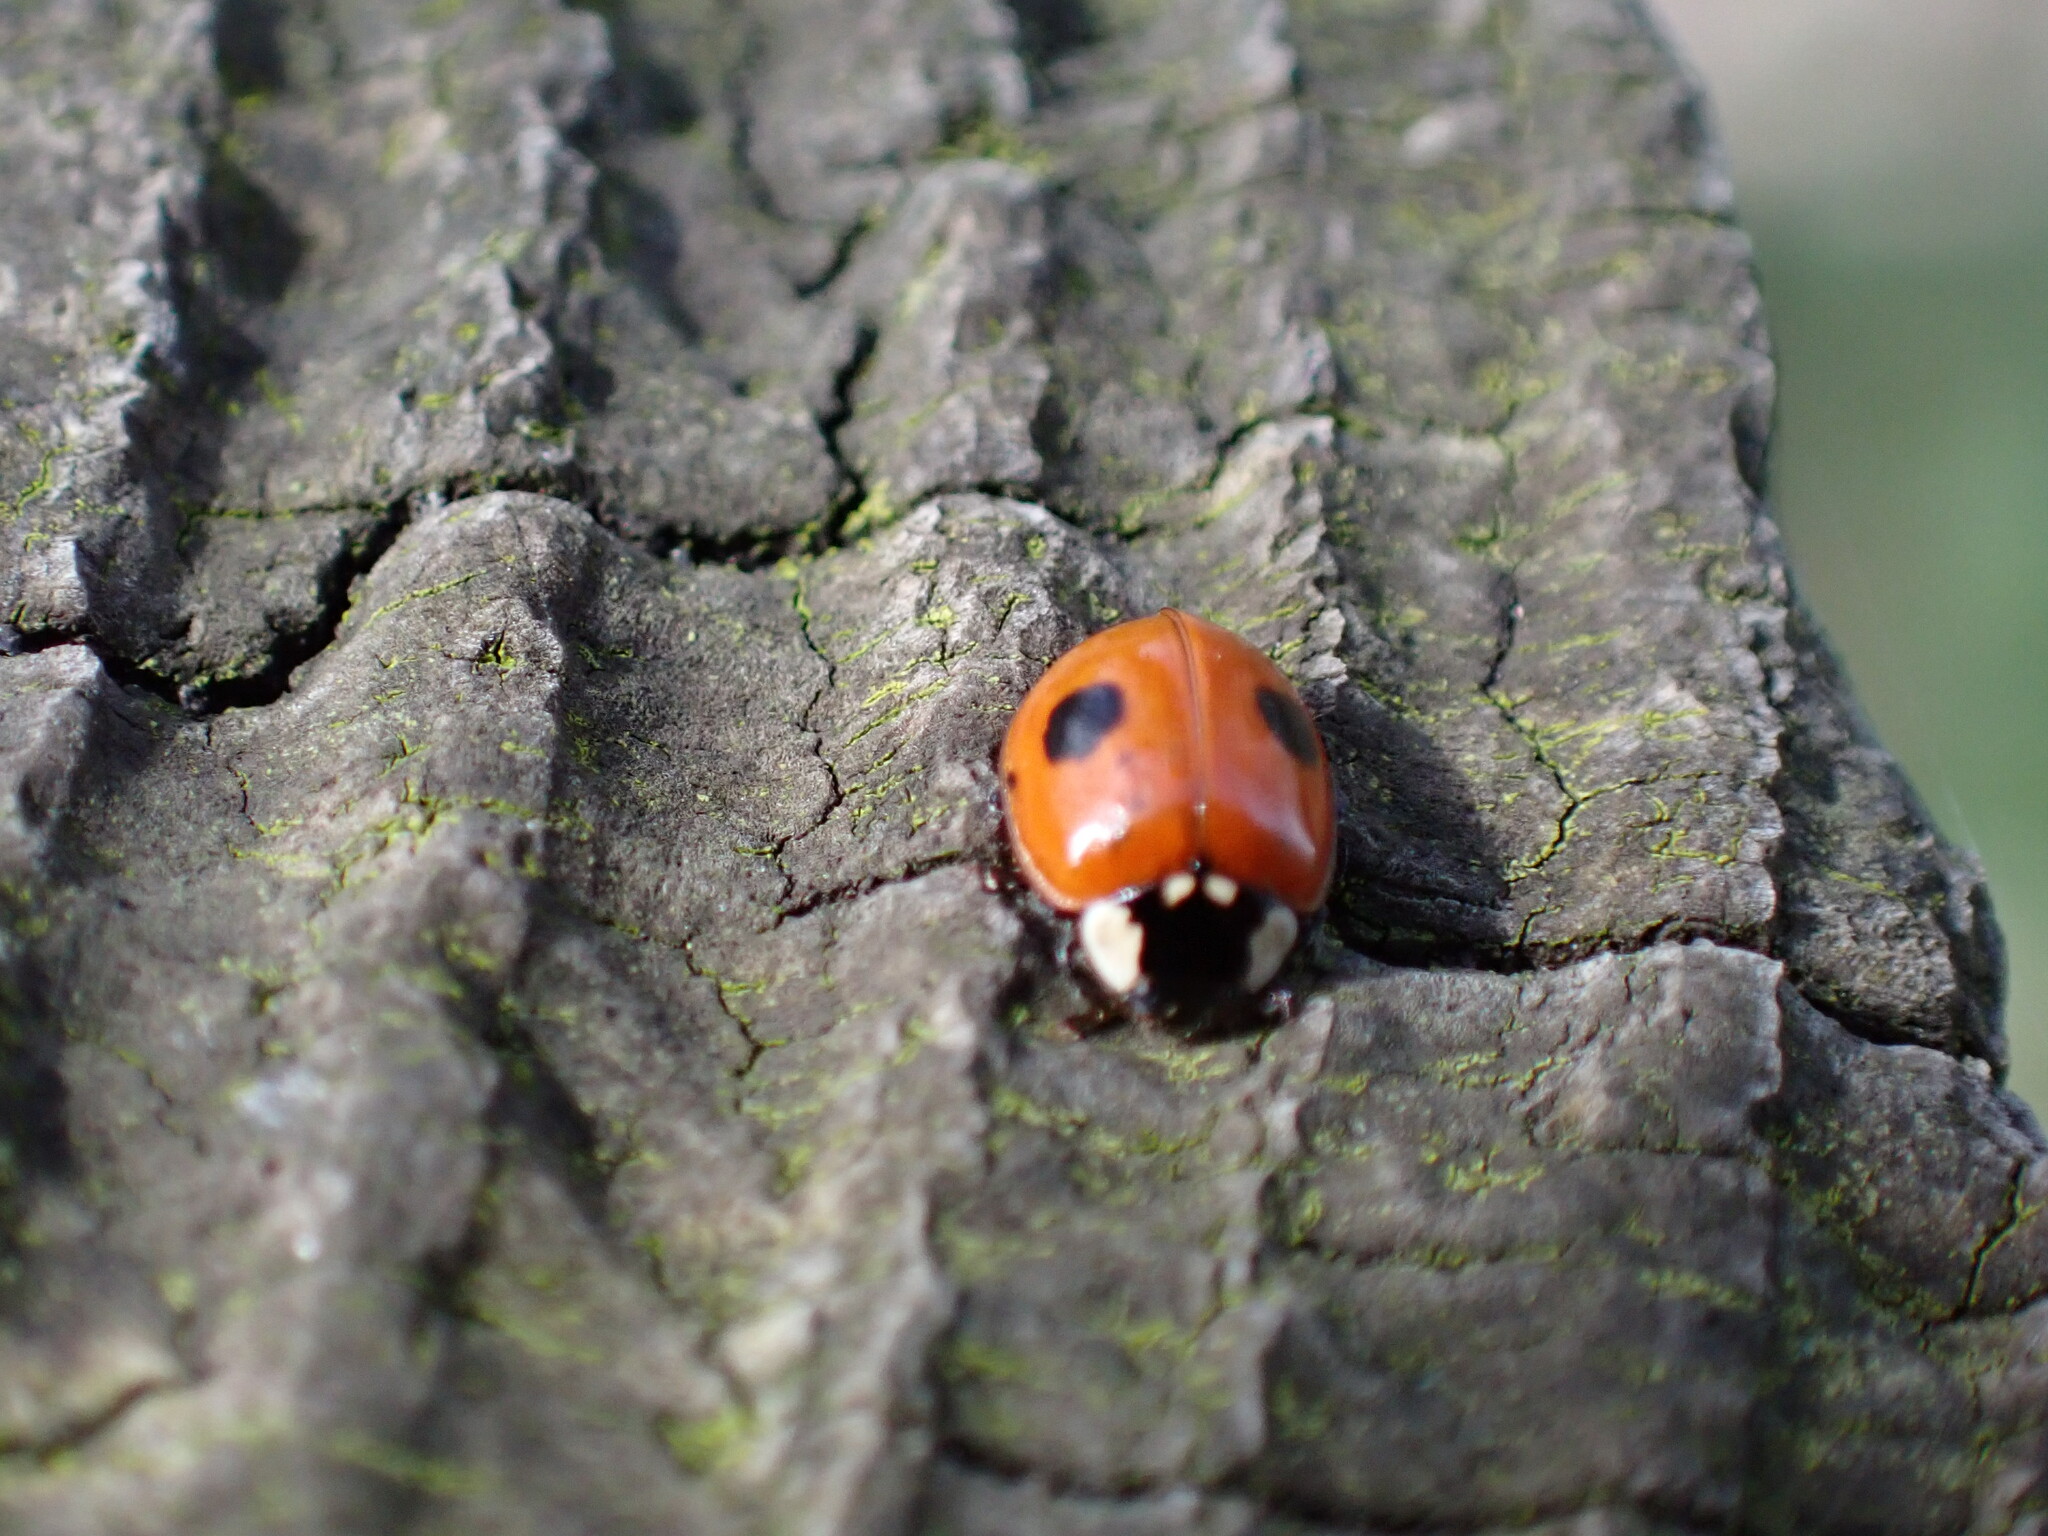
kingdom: Animalia
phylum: Arthropoda
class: Insecta
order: Coleoptera
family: Coccinellidae
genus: Adalia
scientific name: Adalia bipunctata
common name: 2-spot ladybird
